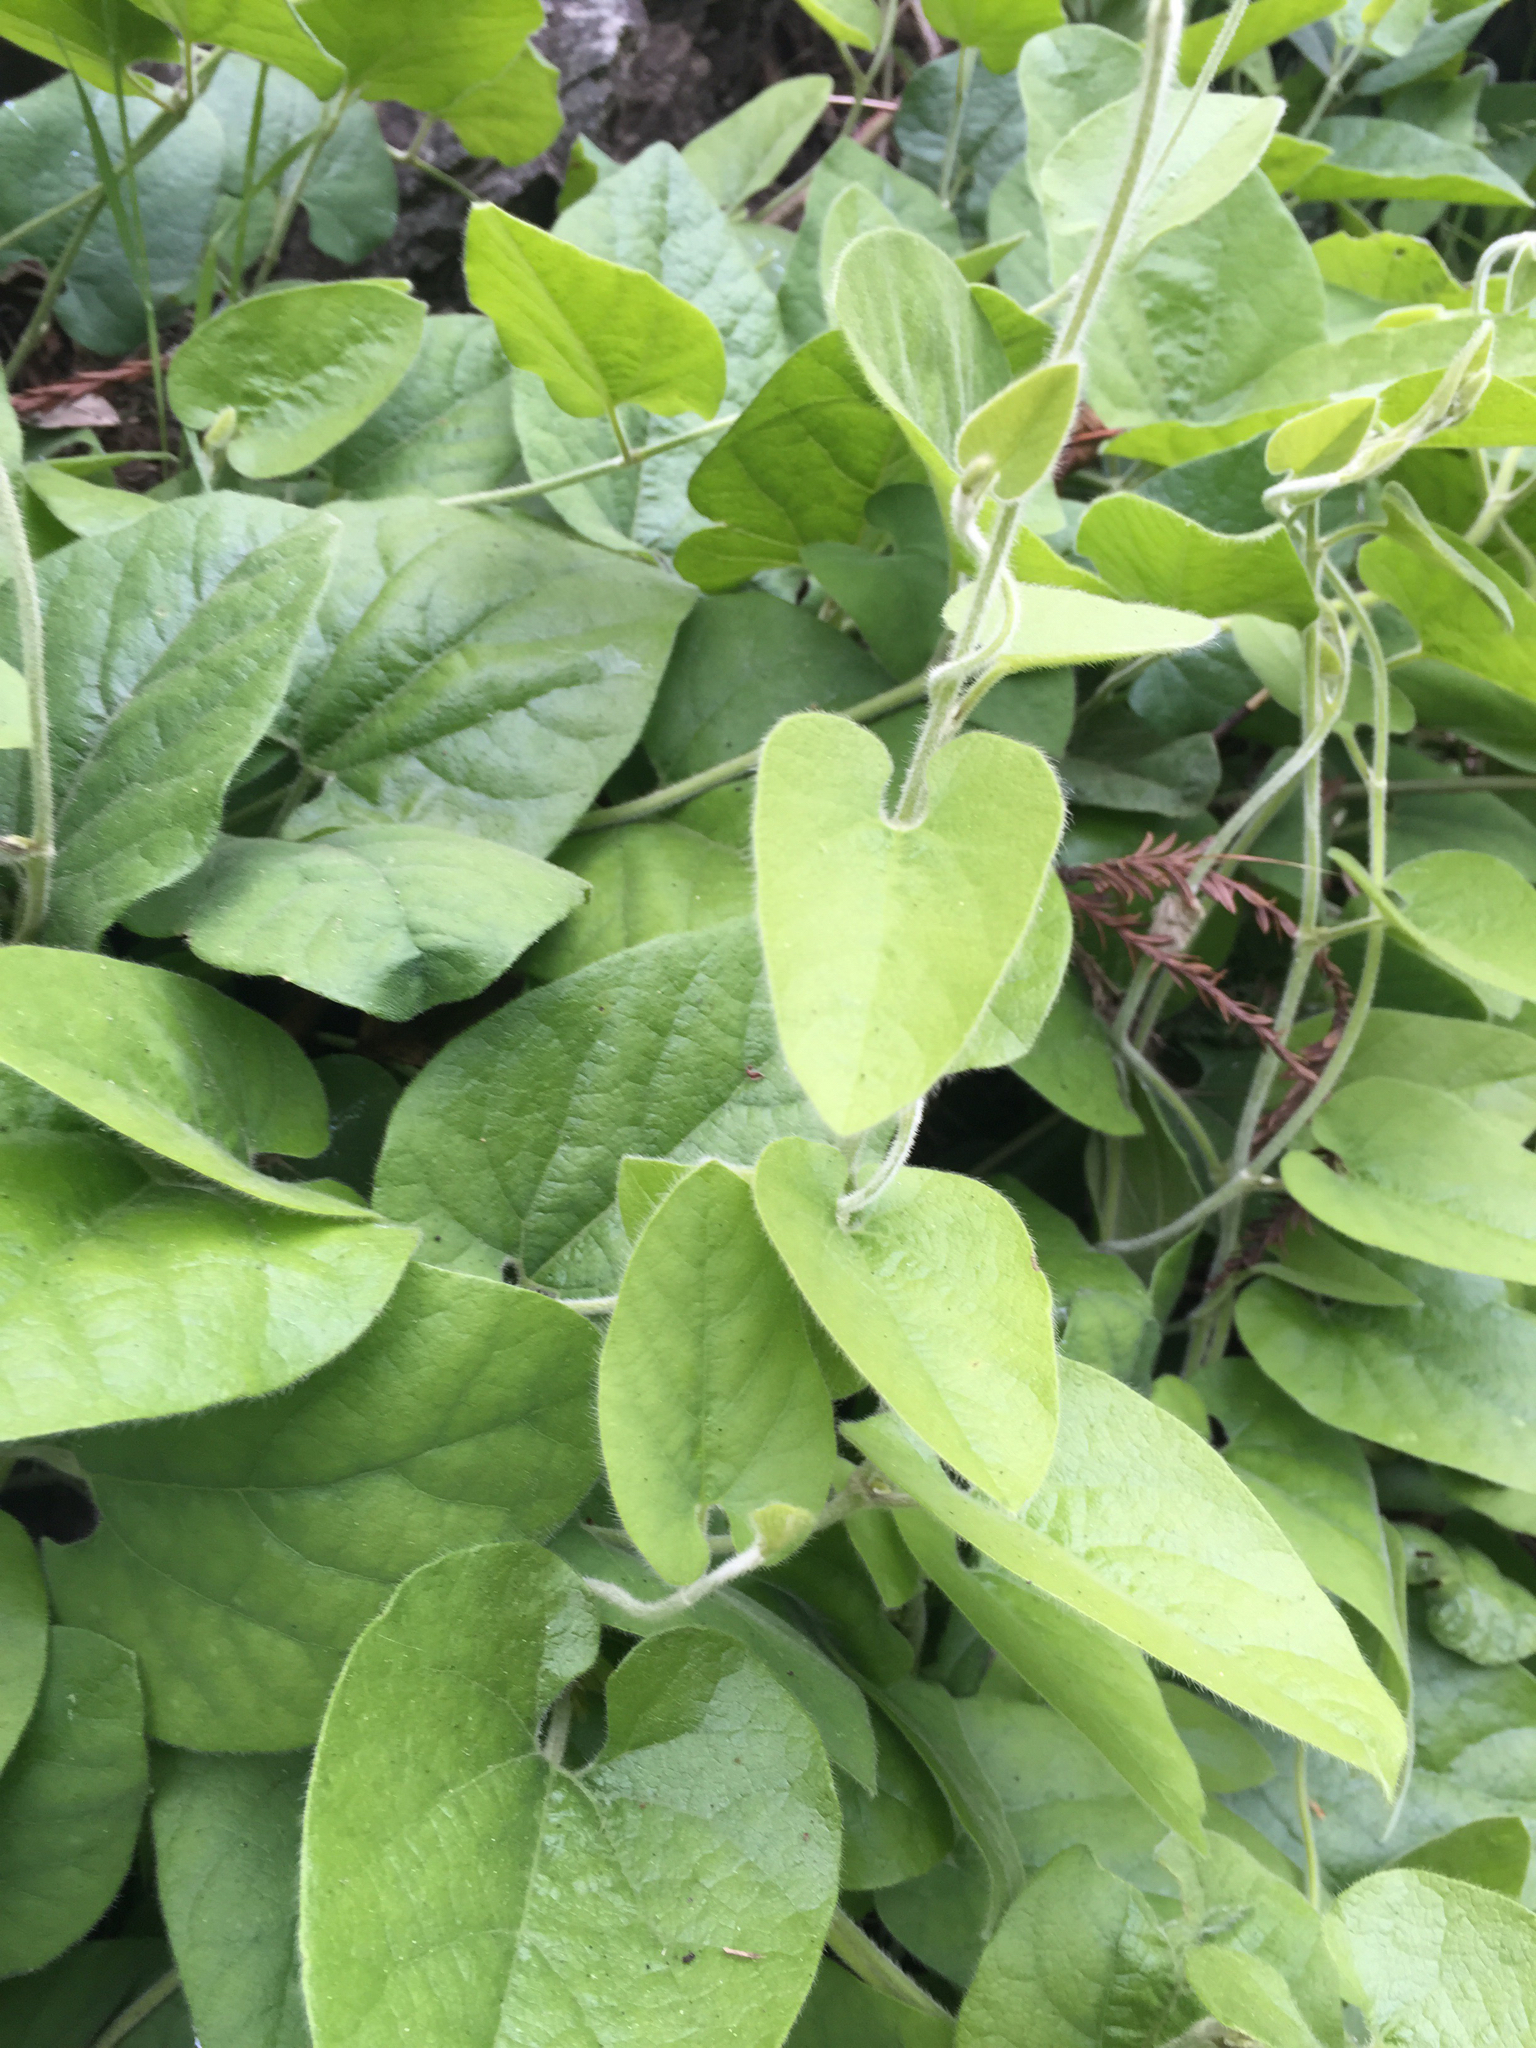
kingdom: Plantae
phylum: Tracheophyta
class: Magnoliopsida
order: Piperales
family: Aristolochiaceae
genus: Isotrema
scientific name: Isotrema californicum
